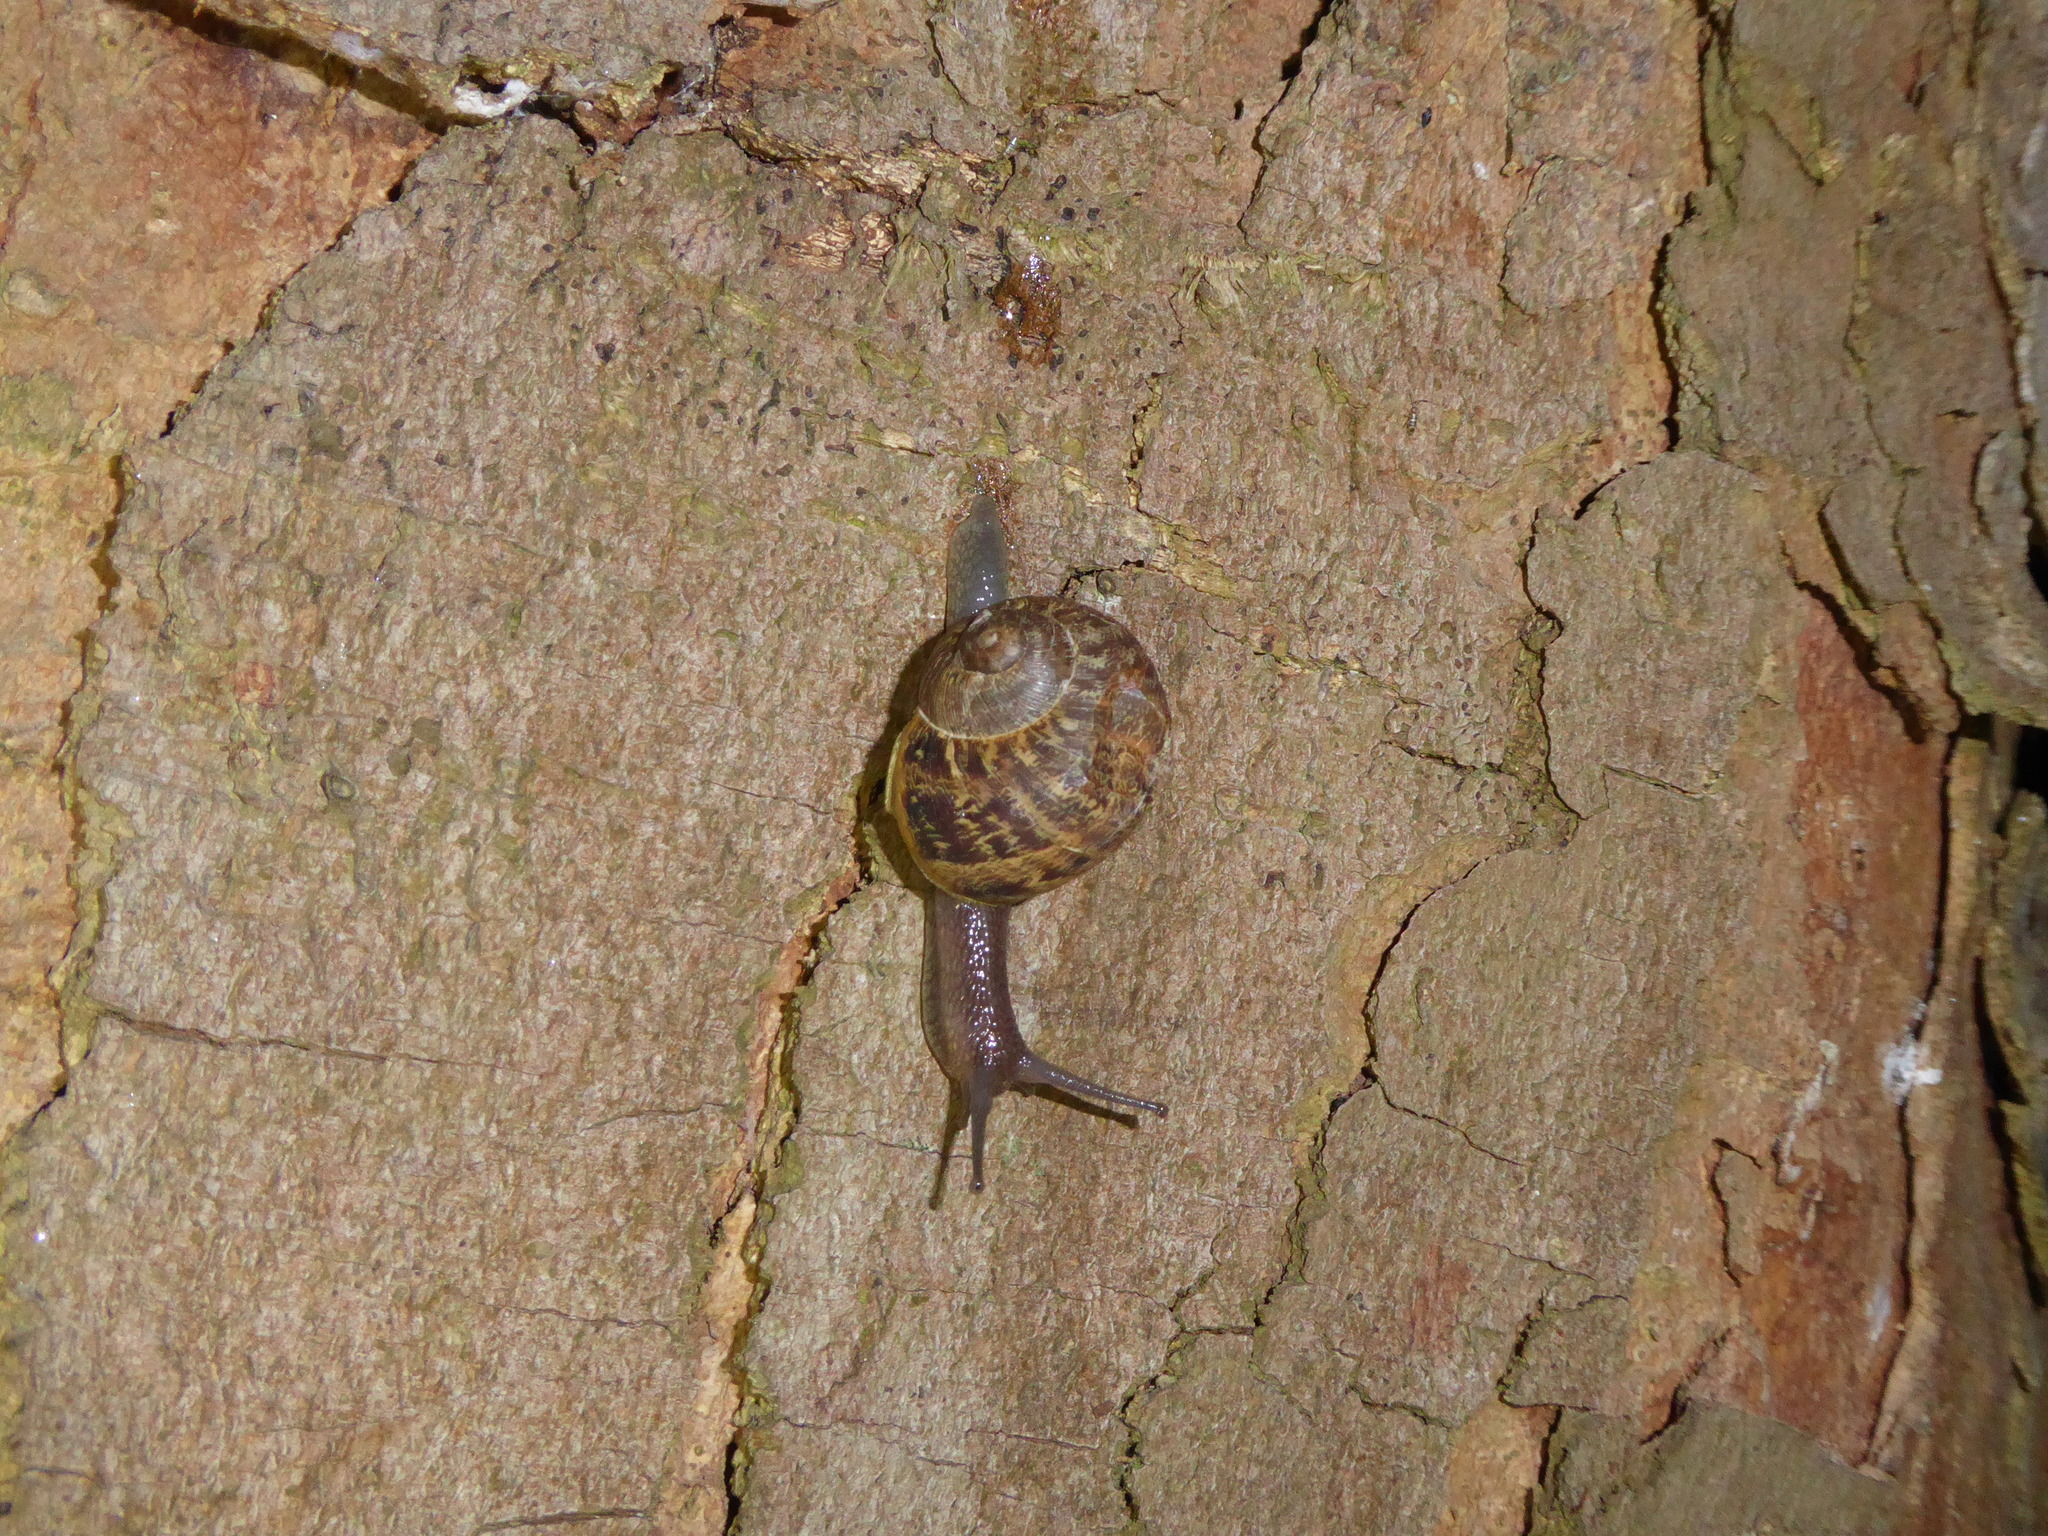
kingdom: Animalia
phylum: Mollusca
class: Gastropoda
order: Stylommatophora
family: Helicidae
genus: Cornu
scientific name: Cornu aspersum
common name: Brown garden snail
